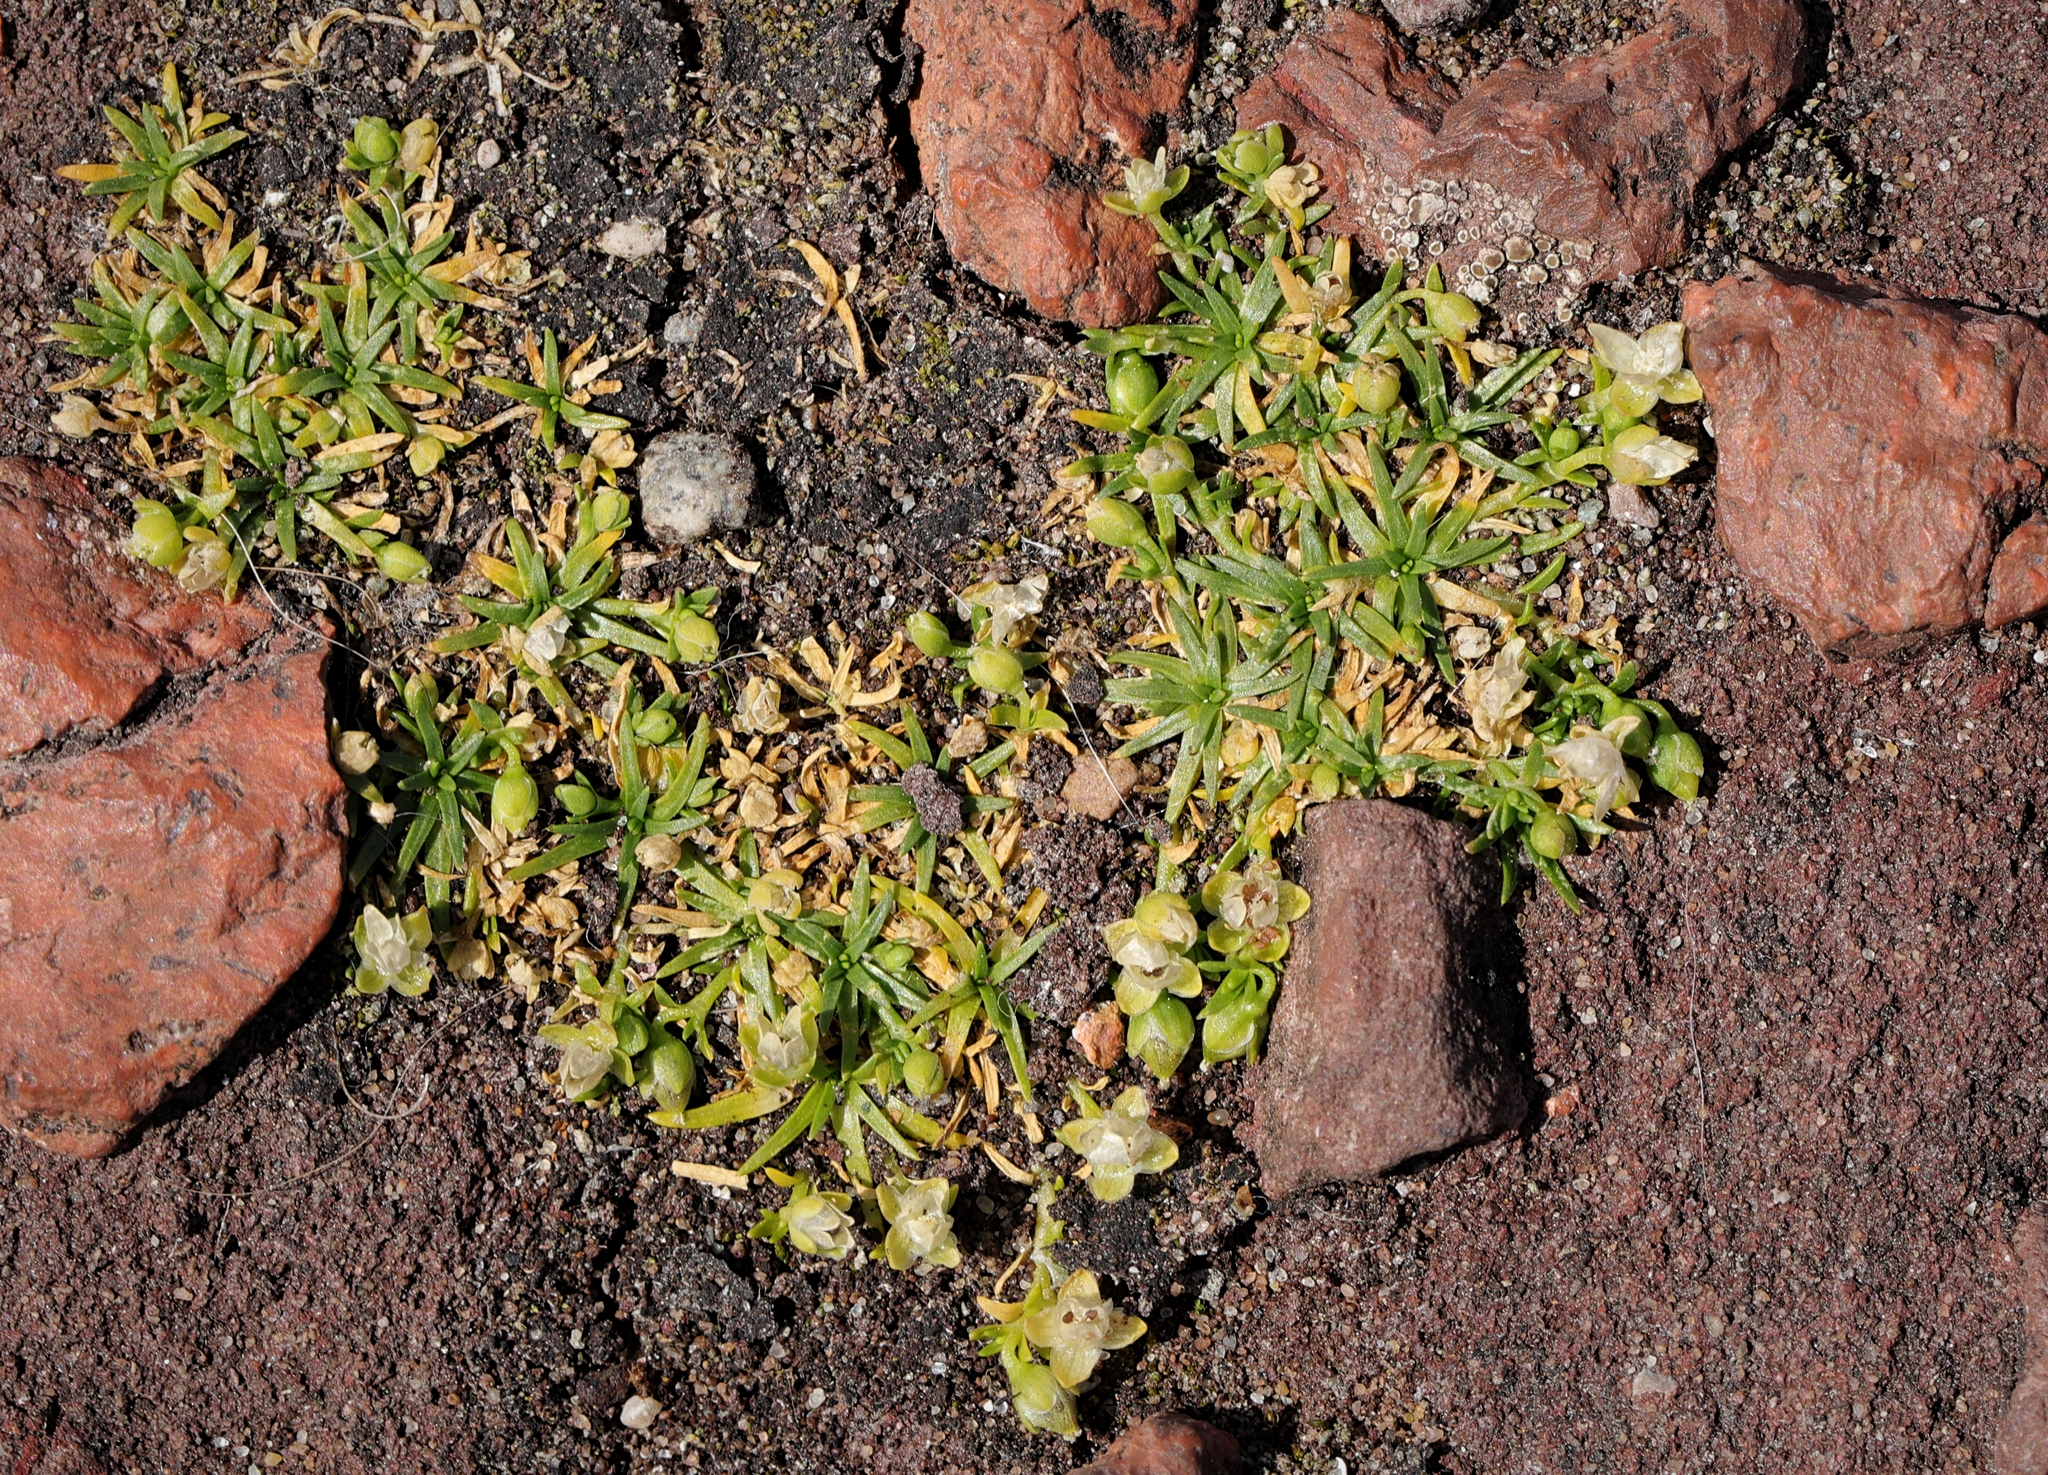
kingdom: Plantae
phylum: Tracheophyta
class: Magnoliopsida
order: Caryophyllales
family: Caryophyllaceae
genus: Sagina
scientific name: Sagina procumbens
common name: Procumbent pearlwort
